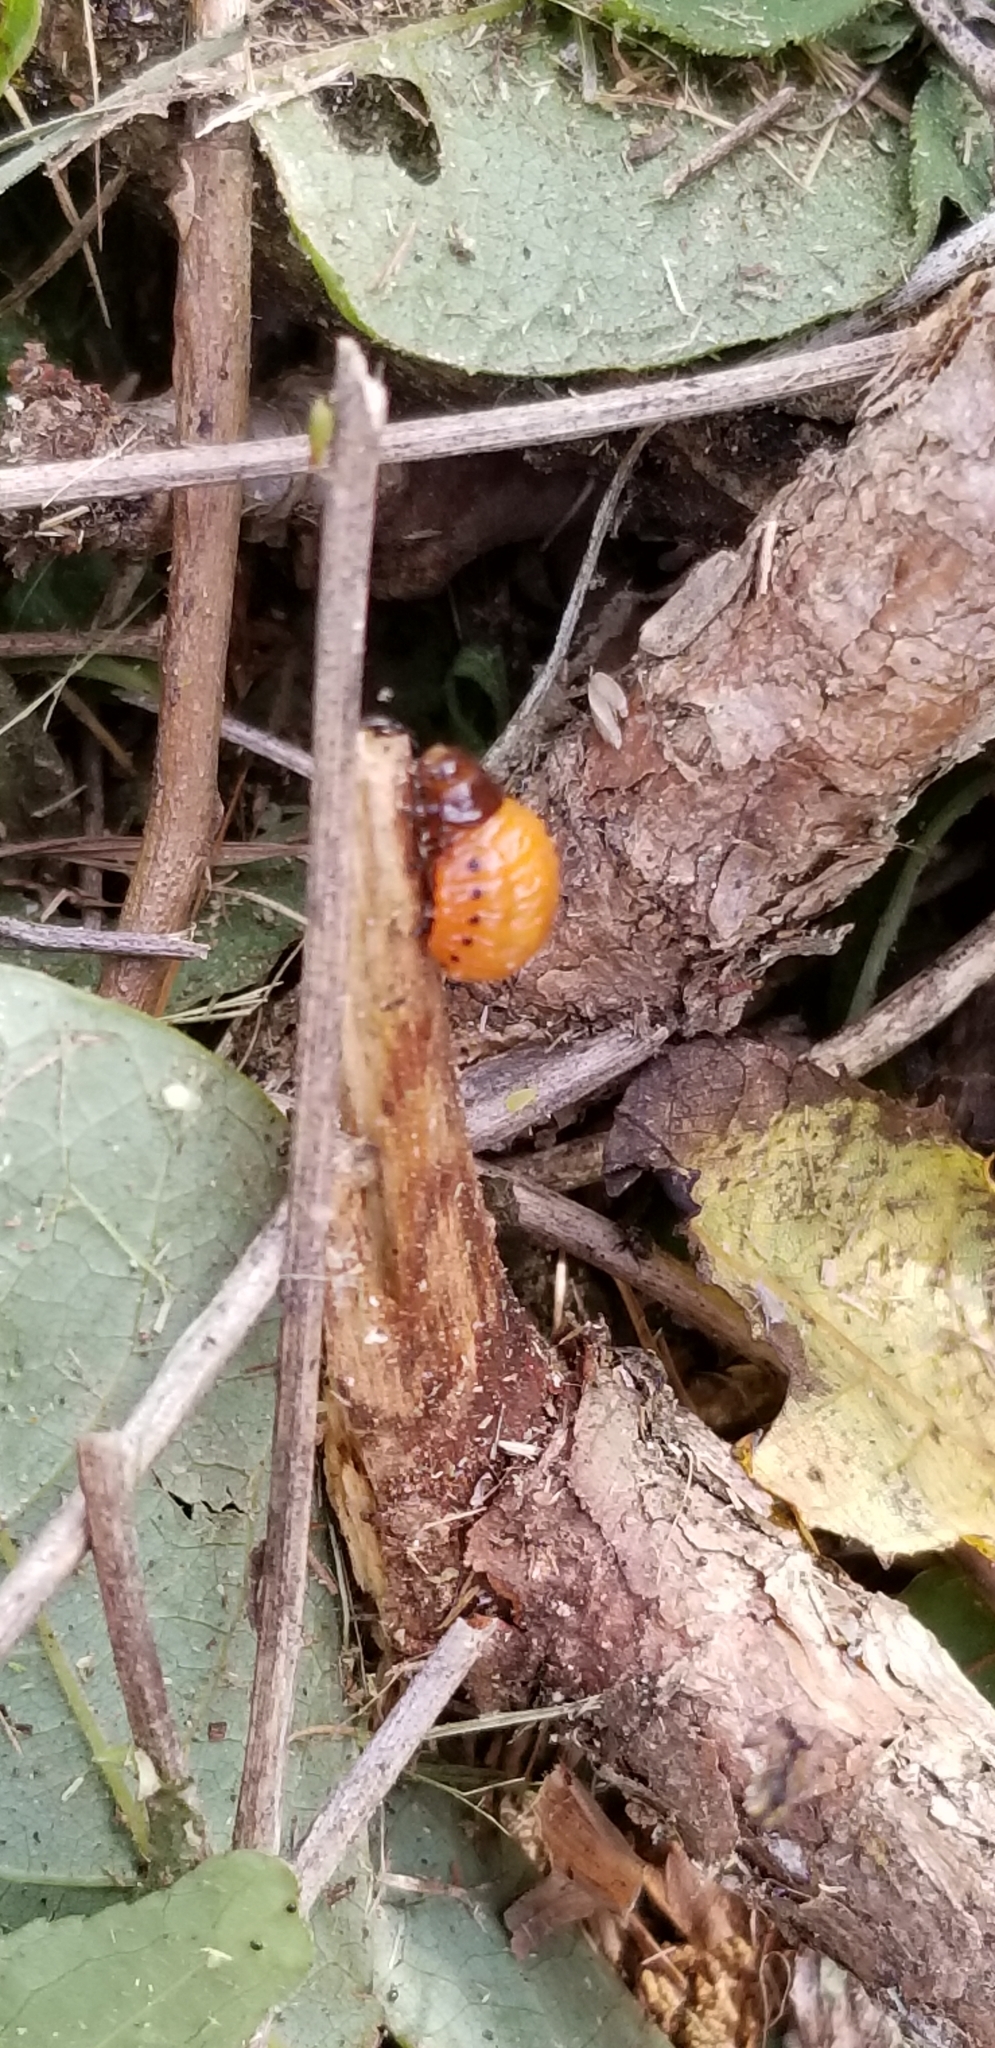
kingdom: Animalia
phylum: Arthropoda
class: Insecta
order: Coleoptera
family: Chrysomelidae
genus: Labidomera
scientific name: Labidomera clivicollis
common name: Swamp milkweed leaf beetle
